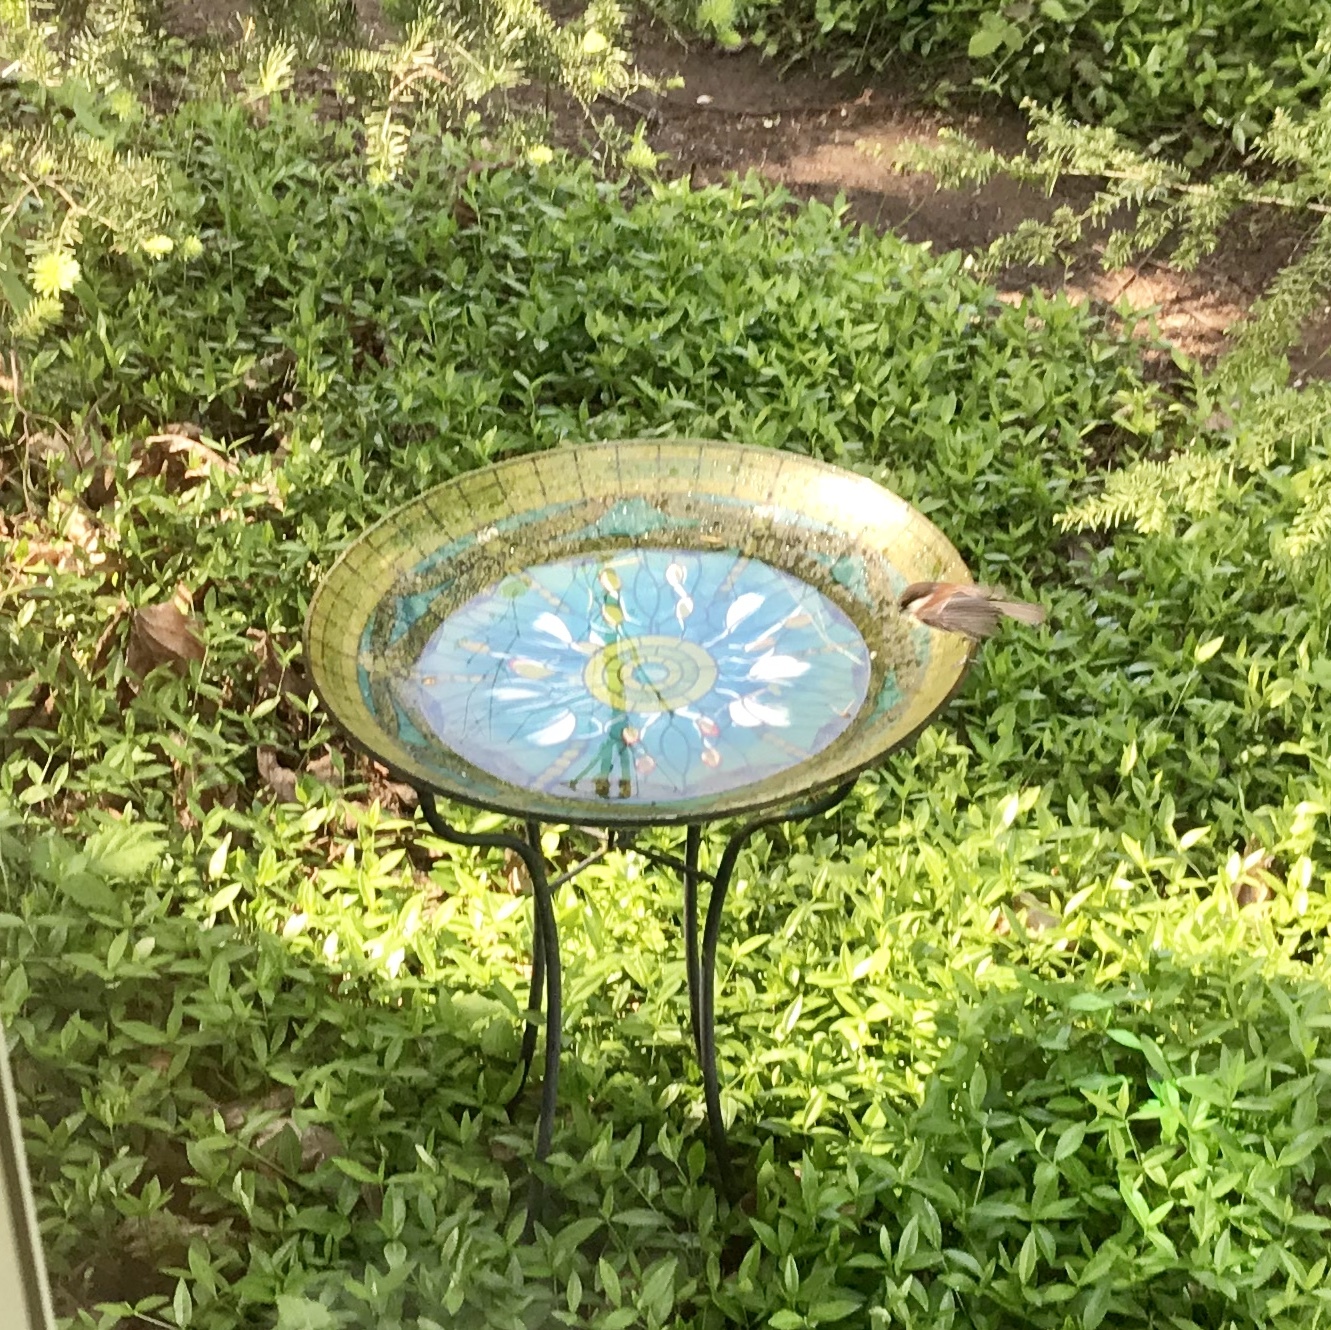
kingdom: Animalia
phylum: Chordata
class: Aves
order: Passeriformes
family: Paridae
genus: Poecile
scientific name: Poecile rufescens
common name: Chestnut-backed chickadee
